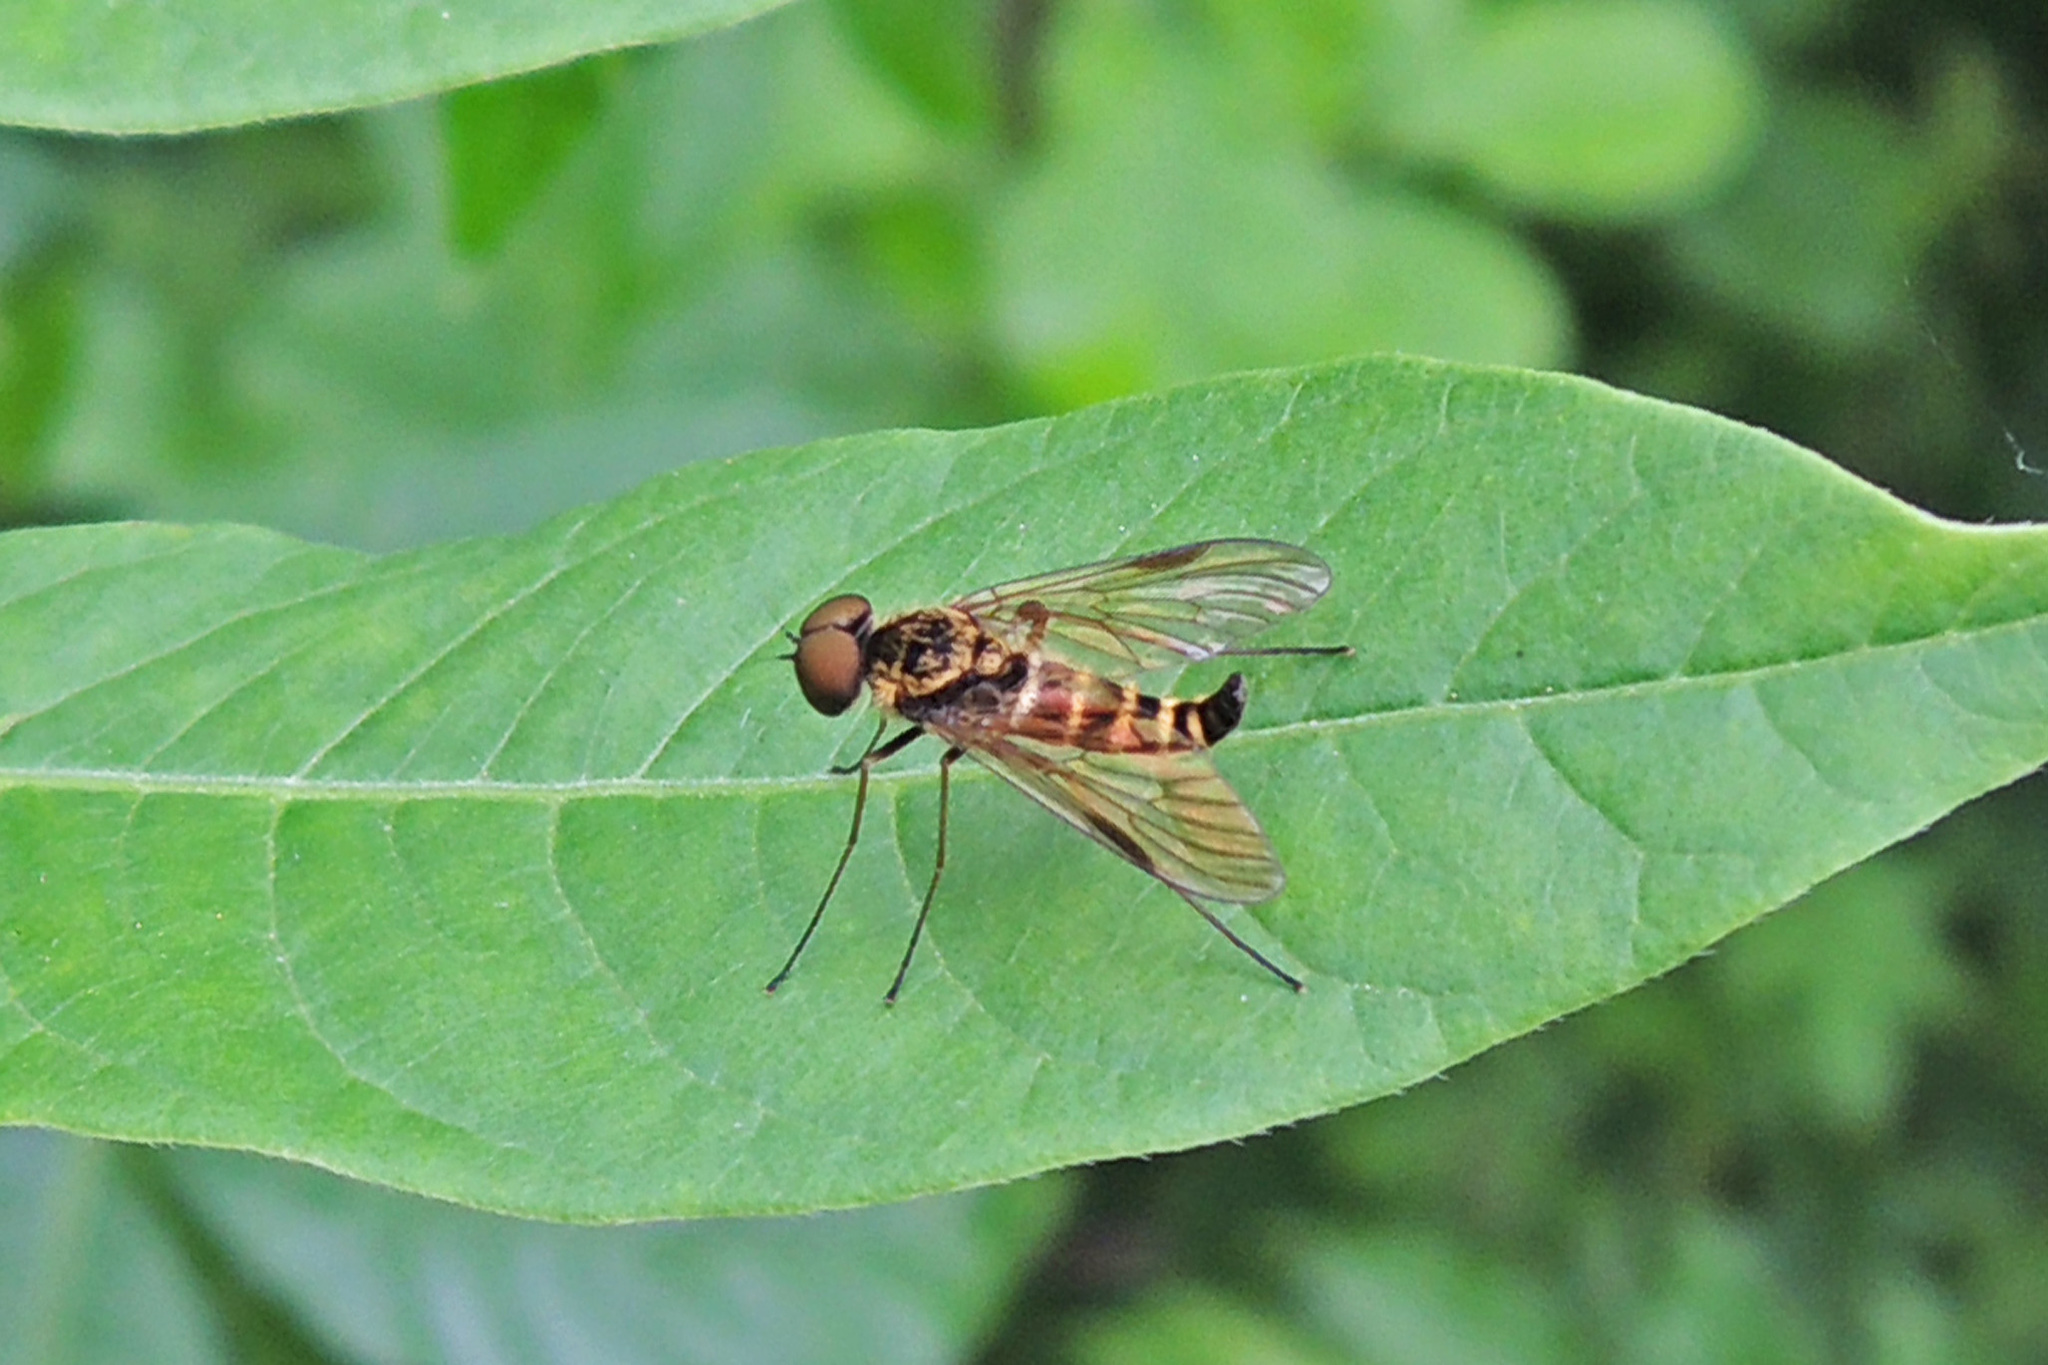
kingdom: Animalia
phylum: Arthropoda
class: Insecta
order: Diptera
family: Rhagionidae
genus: Chrysopilus
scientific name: Chrysopilus fasciatus
